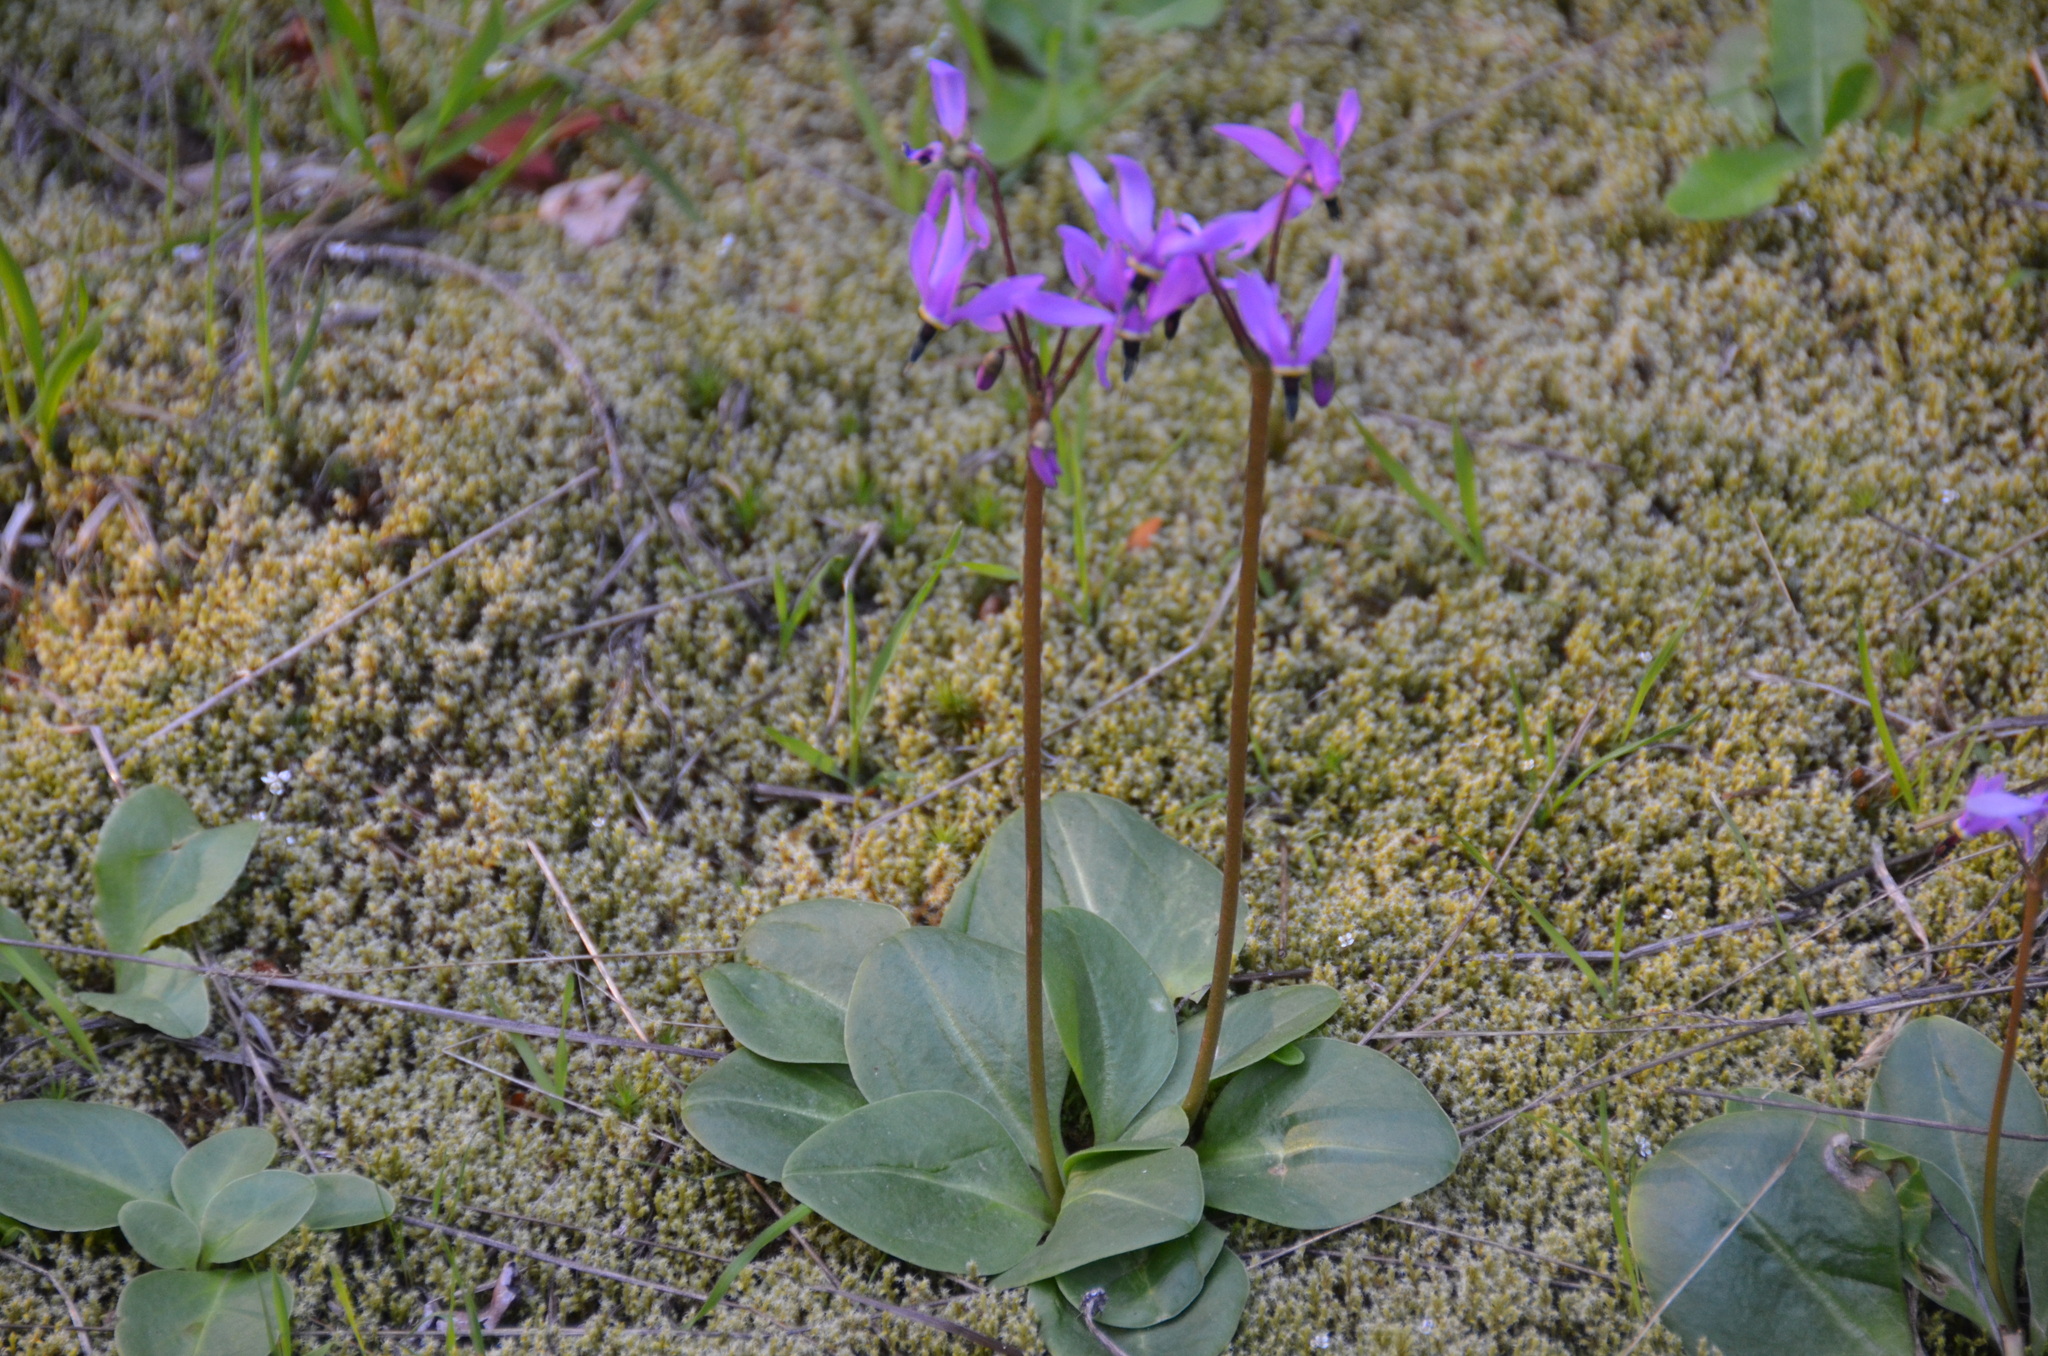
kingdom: Plantae
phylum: Tracheophyta
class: Magnoliopsida
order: Ericales
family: Primulaceae
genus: Dodecatheon
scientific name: Dodecatheon hendersonii
